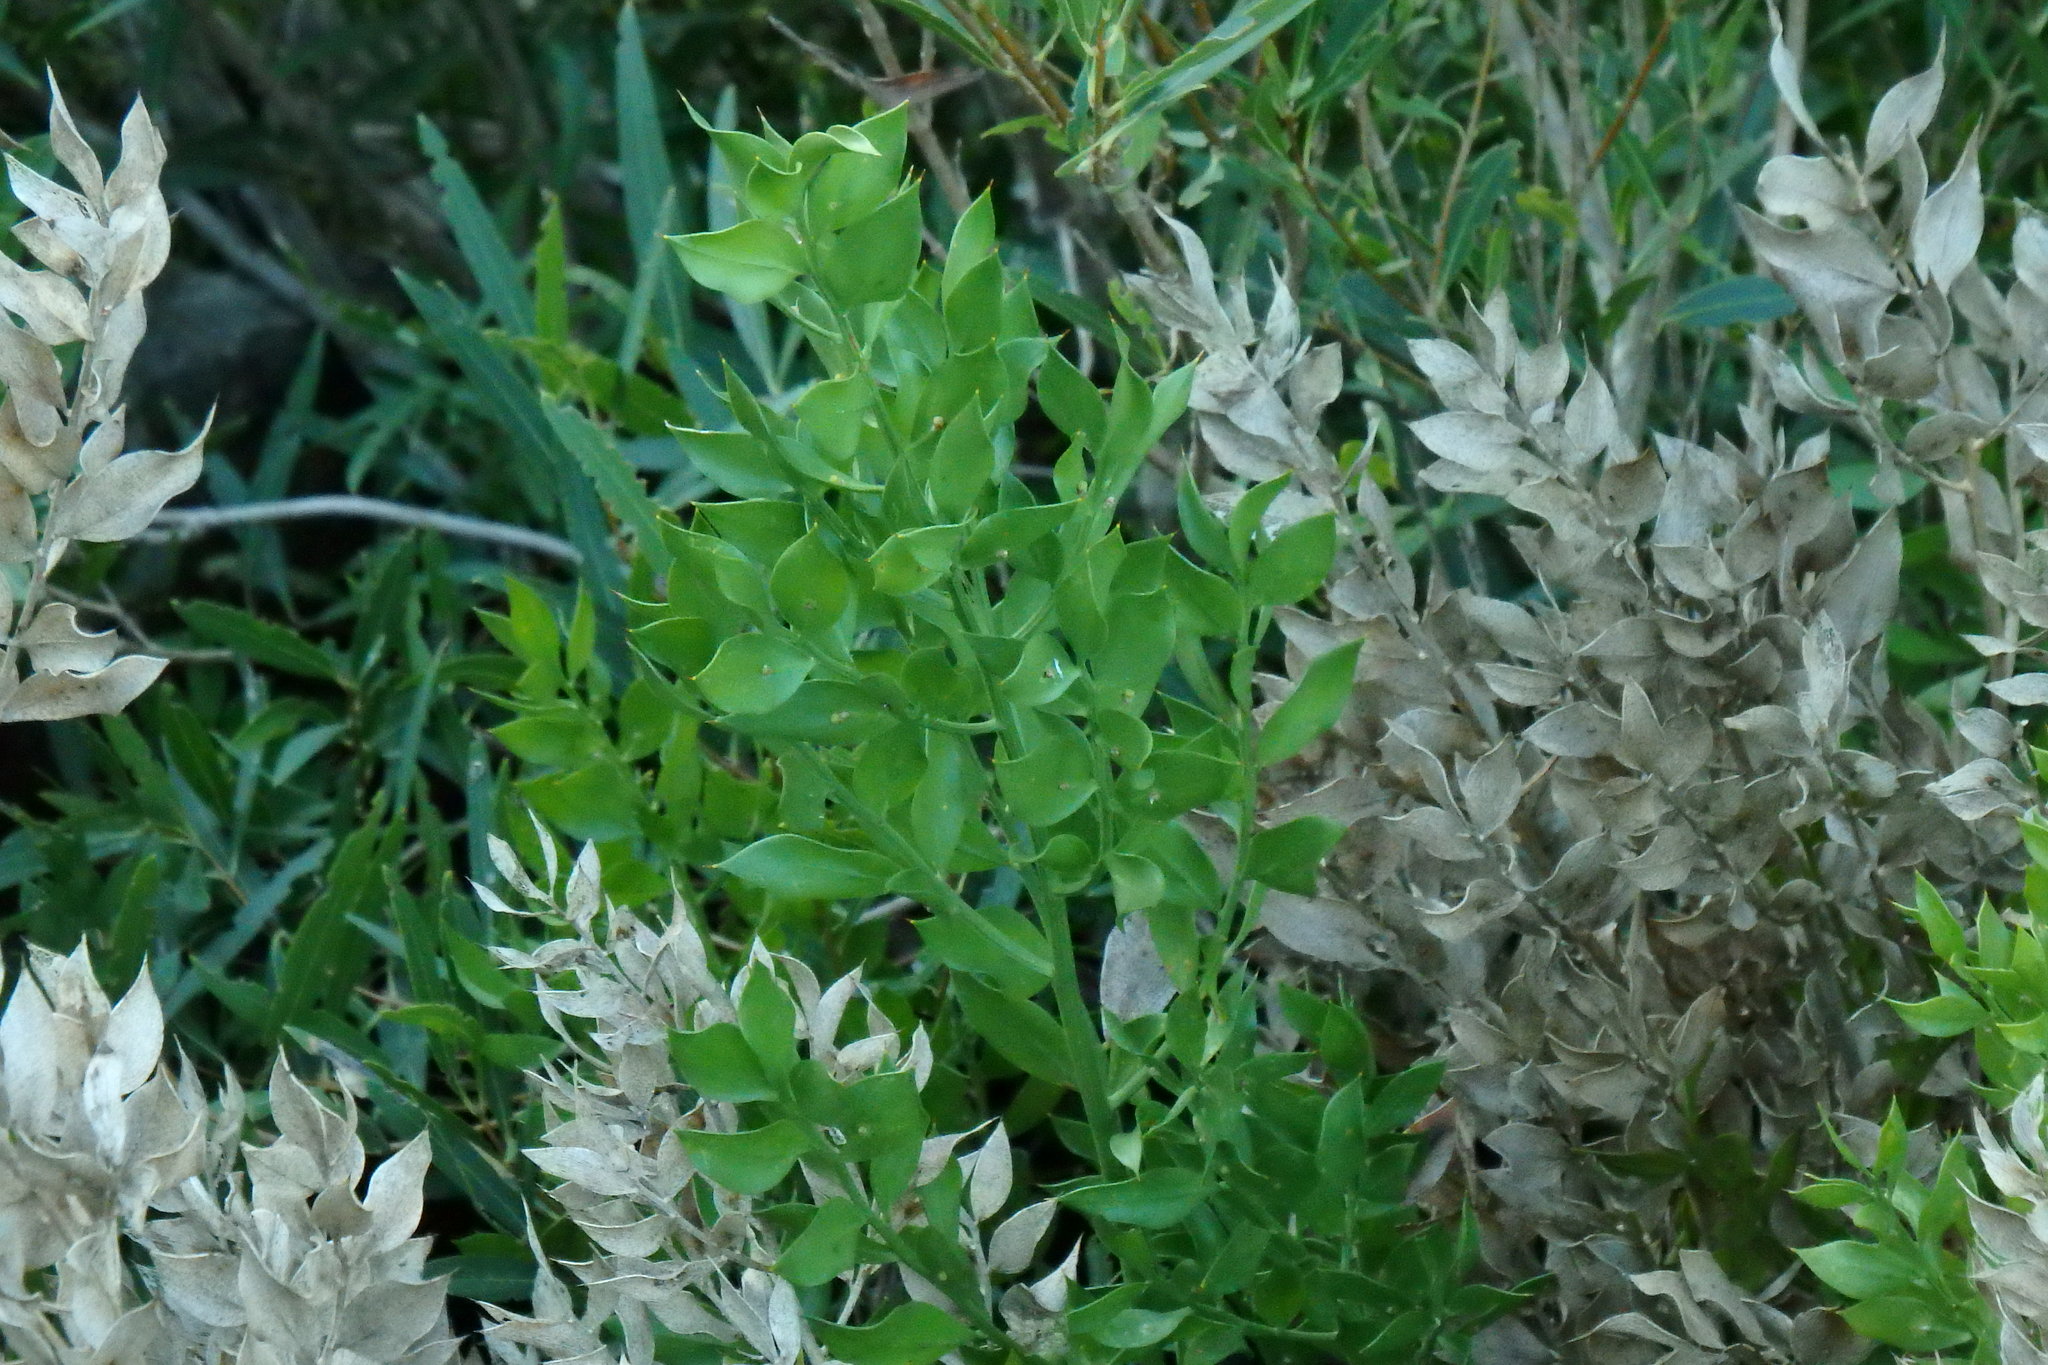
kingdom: Plantae
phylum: Tracheophyta
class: Liliopsida
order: Asparagales
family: Asparagaceae
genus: Ruscus
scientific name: Ruscus aculeatus
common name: Butcher's-broom
